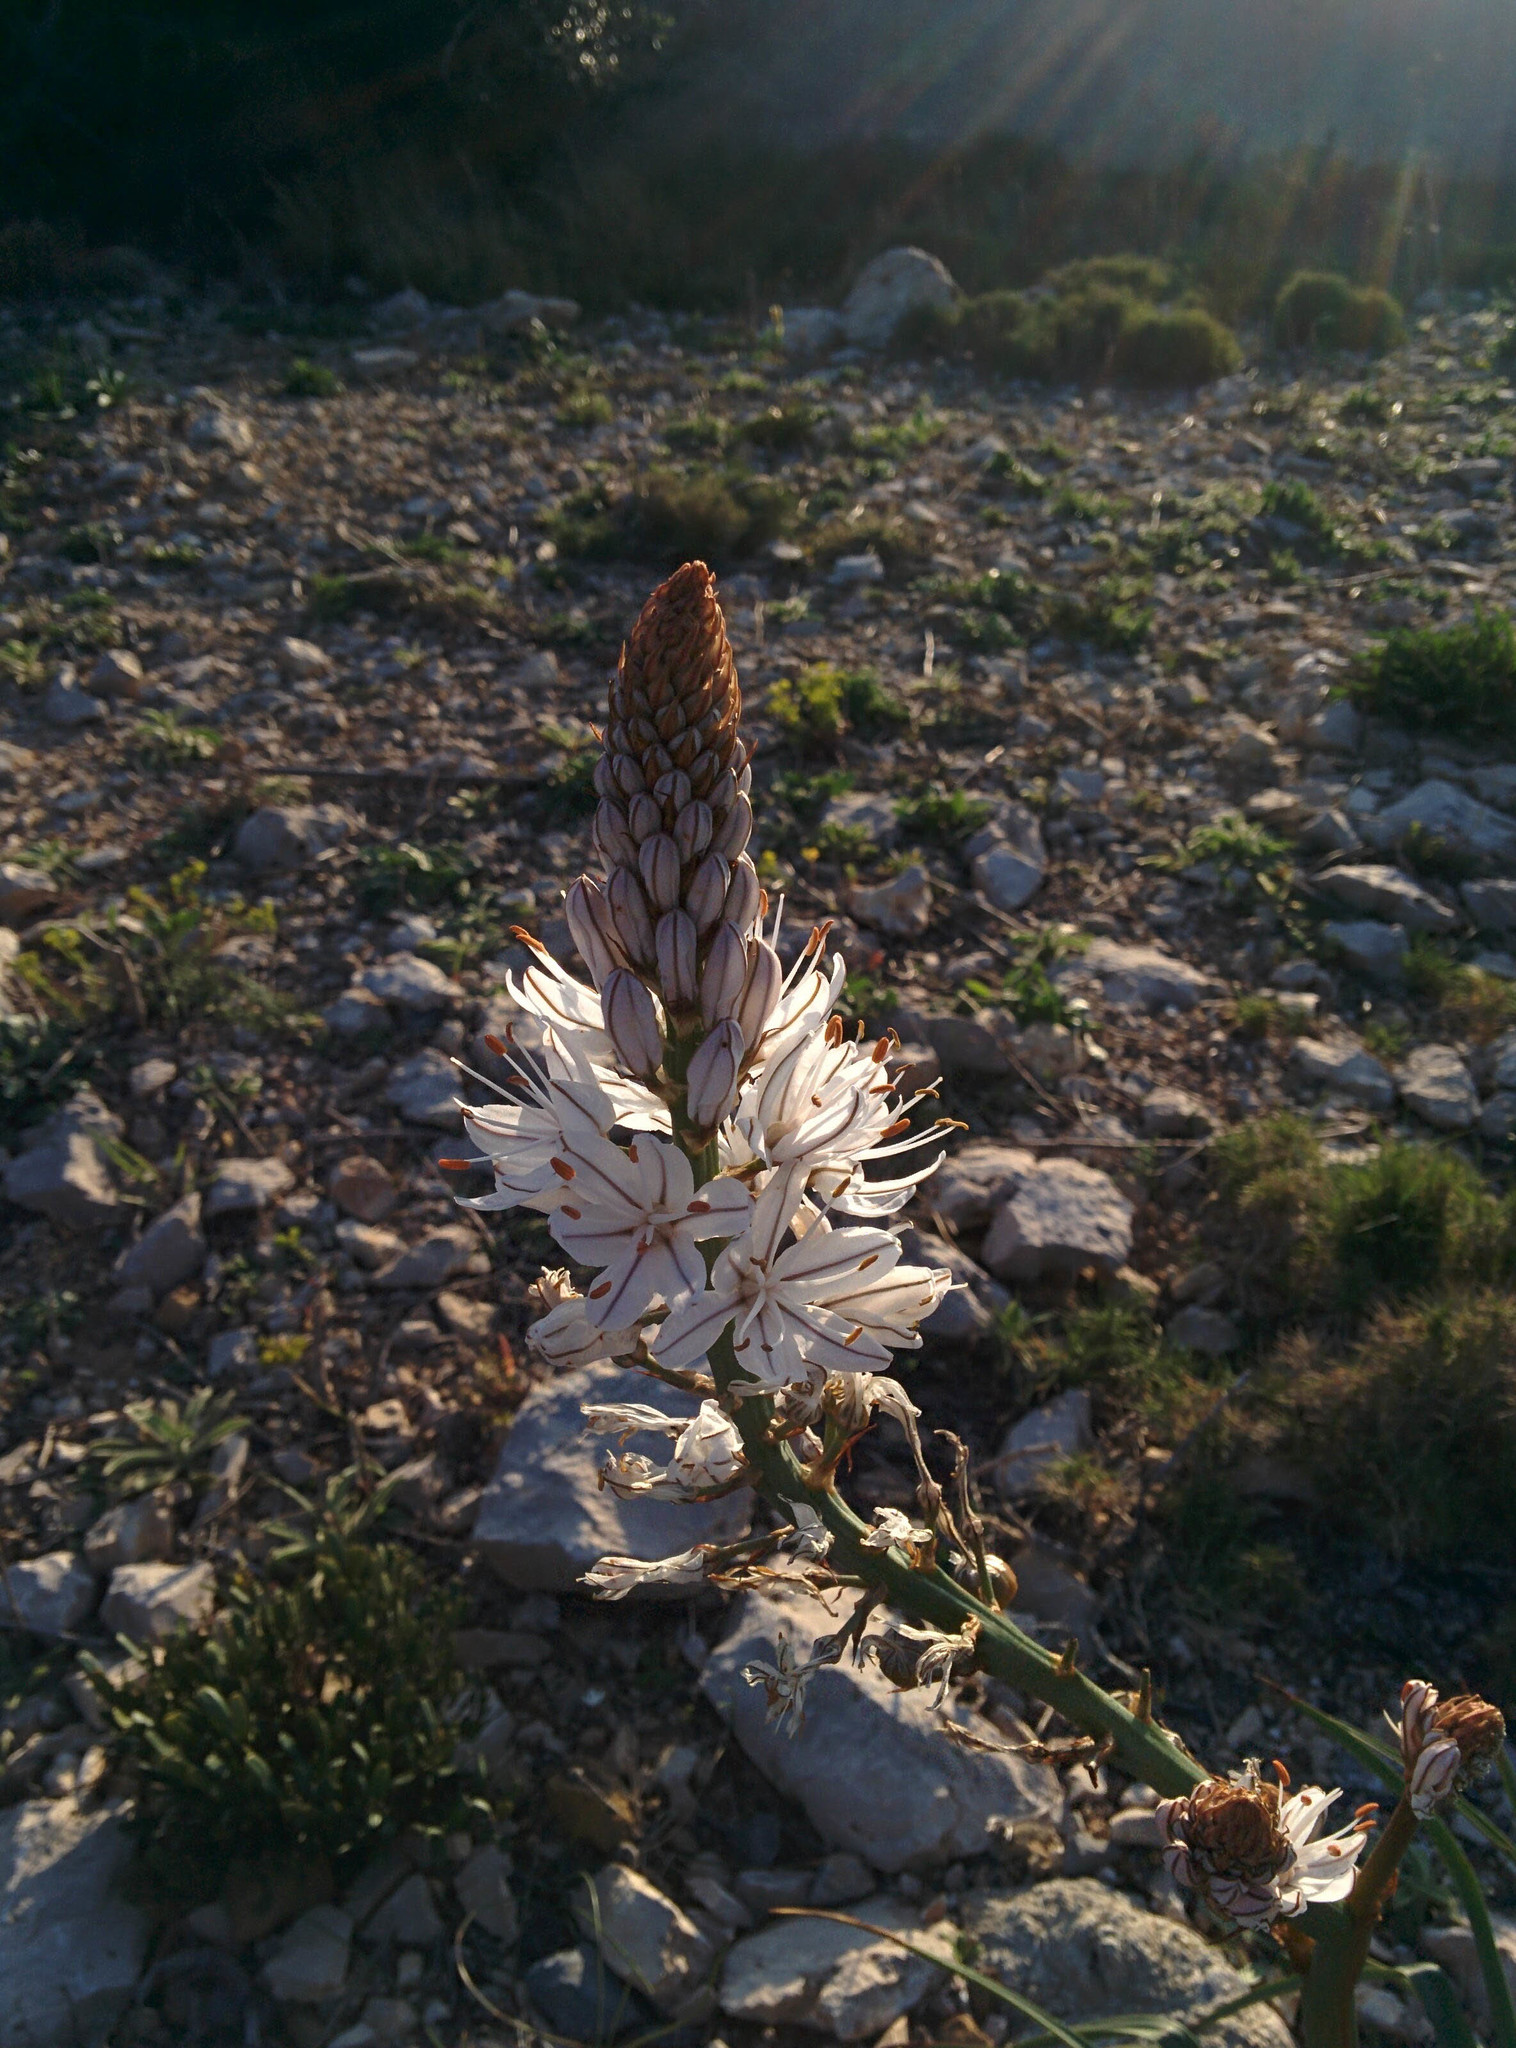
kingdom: Plantae
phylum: Tracheophyta
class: Liliopsida
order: Asparagales
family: Asphodelaceae
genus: Asphodelus
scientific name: Asphodelus cerasifer
